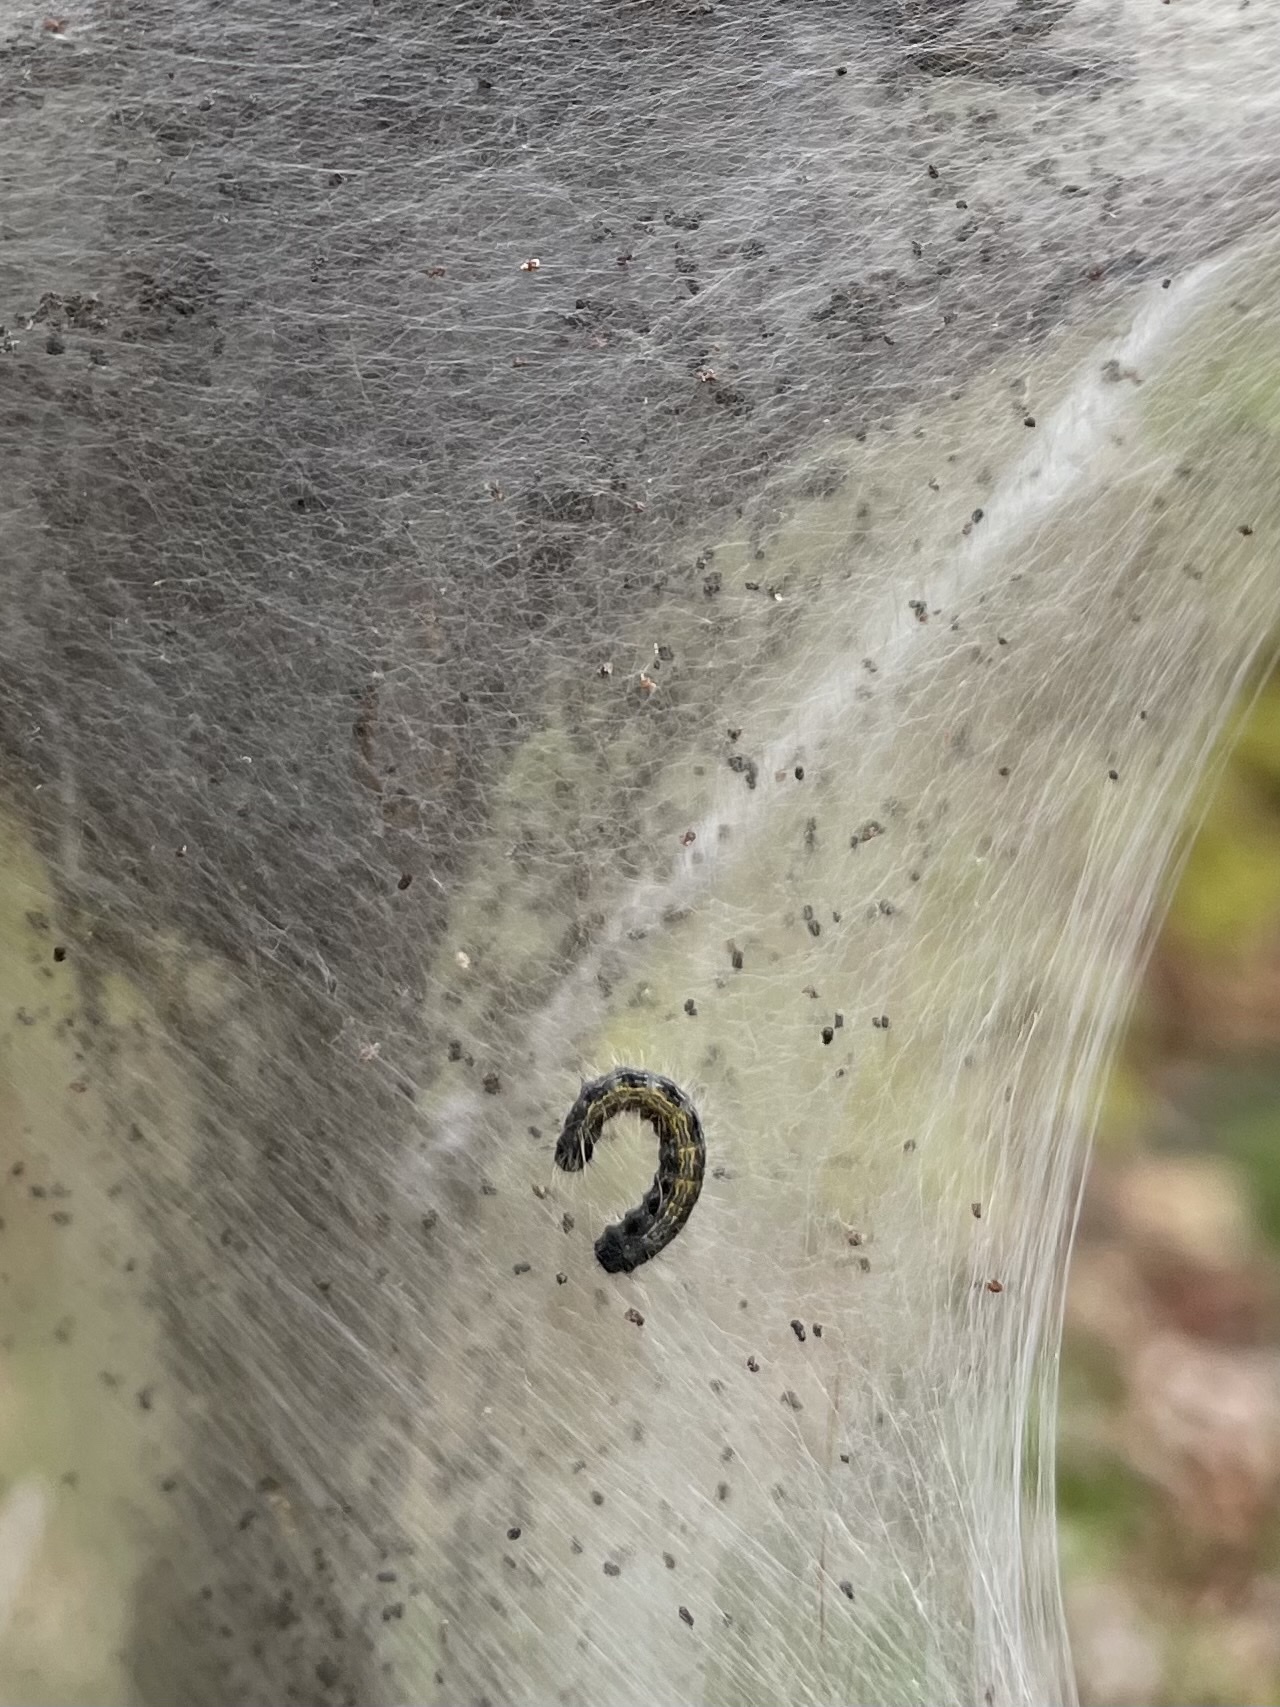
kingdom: Animalia
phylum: Arthropoda
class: Insecta
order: Lepidoptera
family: Lasiocampidae
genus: Malacosoma
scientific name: Malacosoma americana
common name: Eastern tent caterpillar moth
